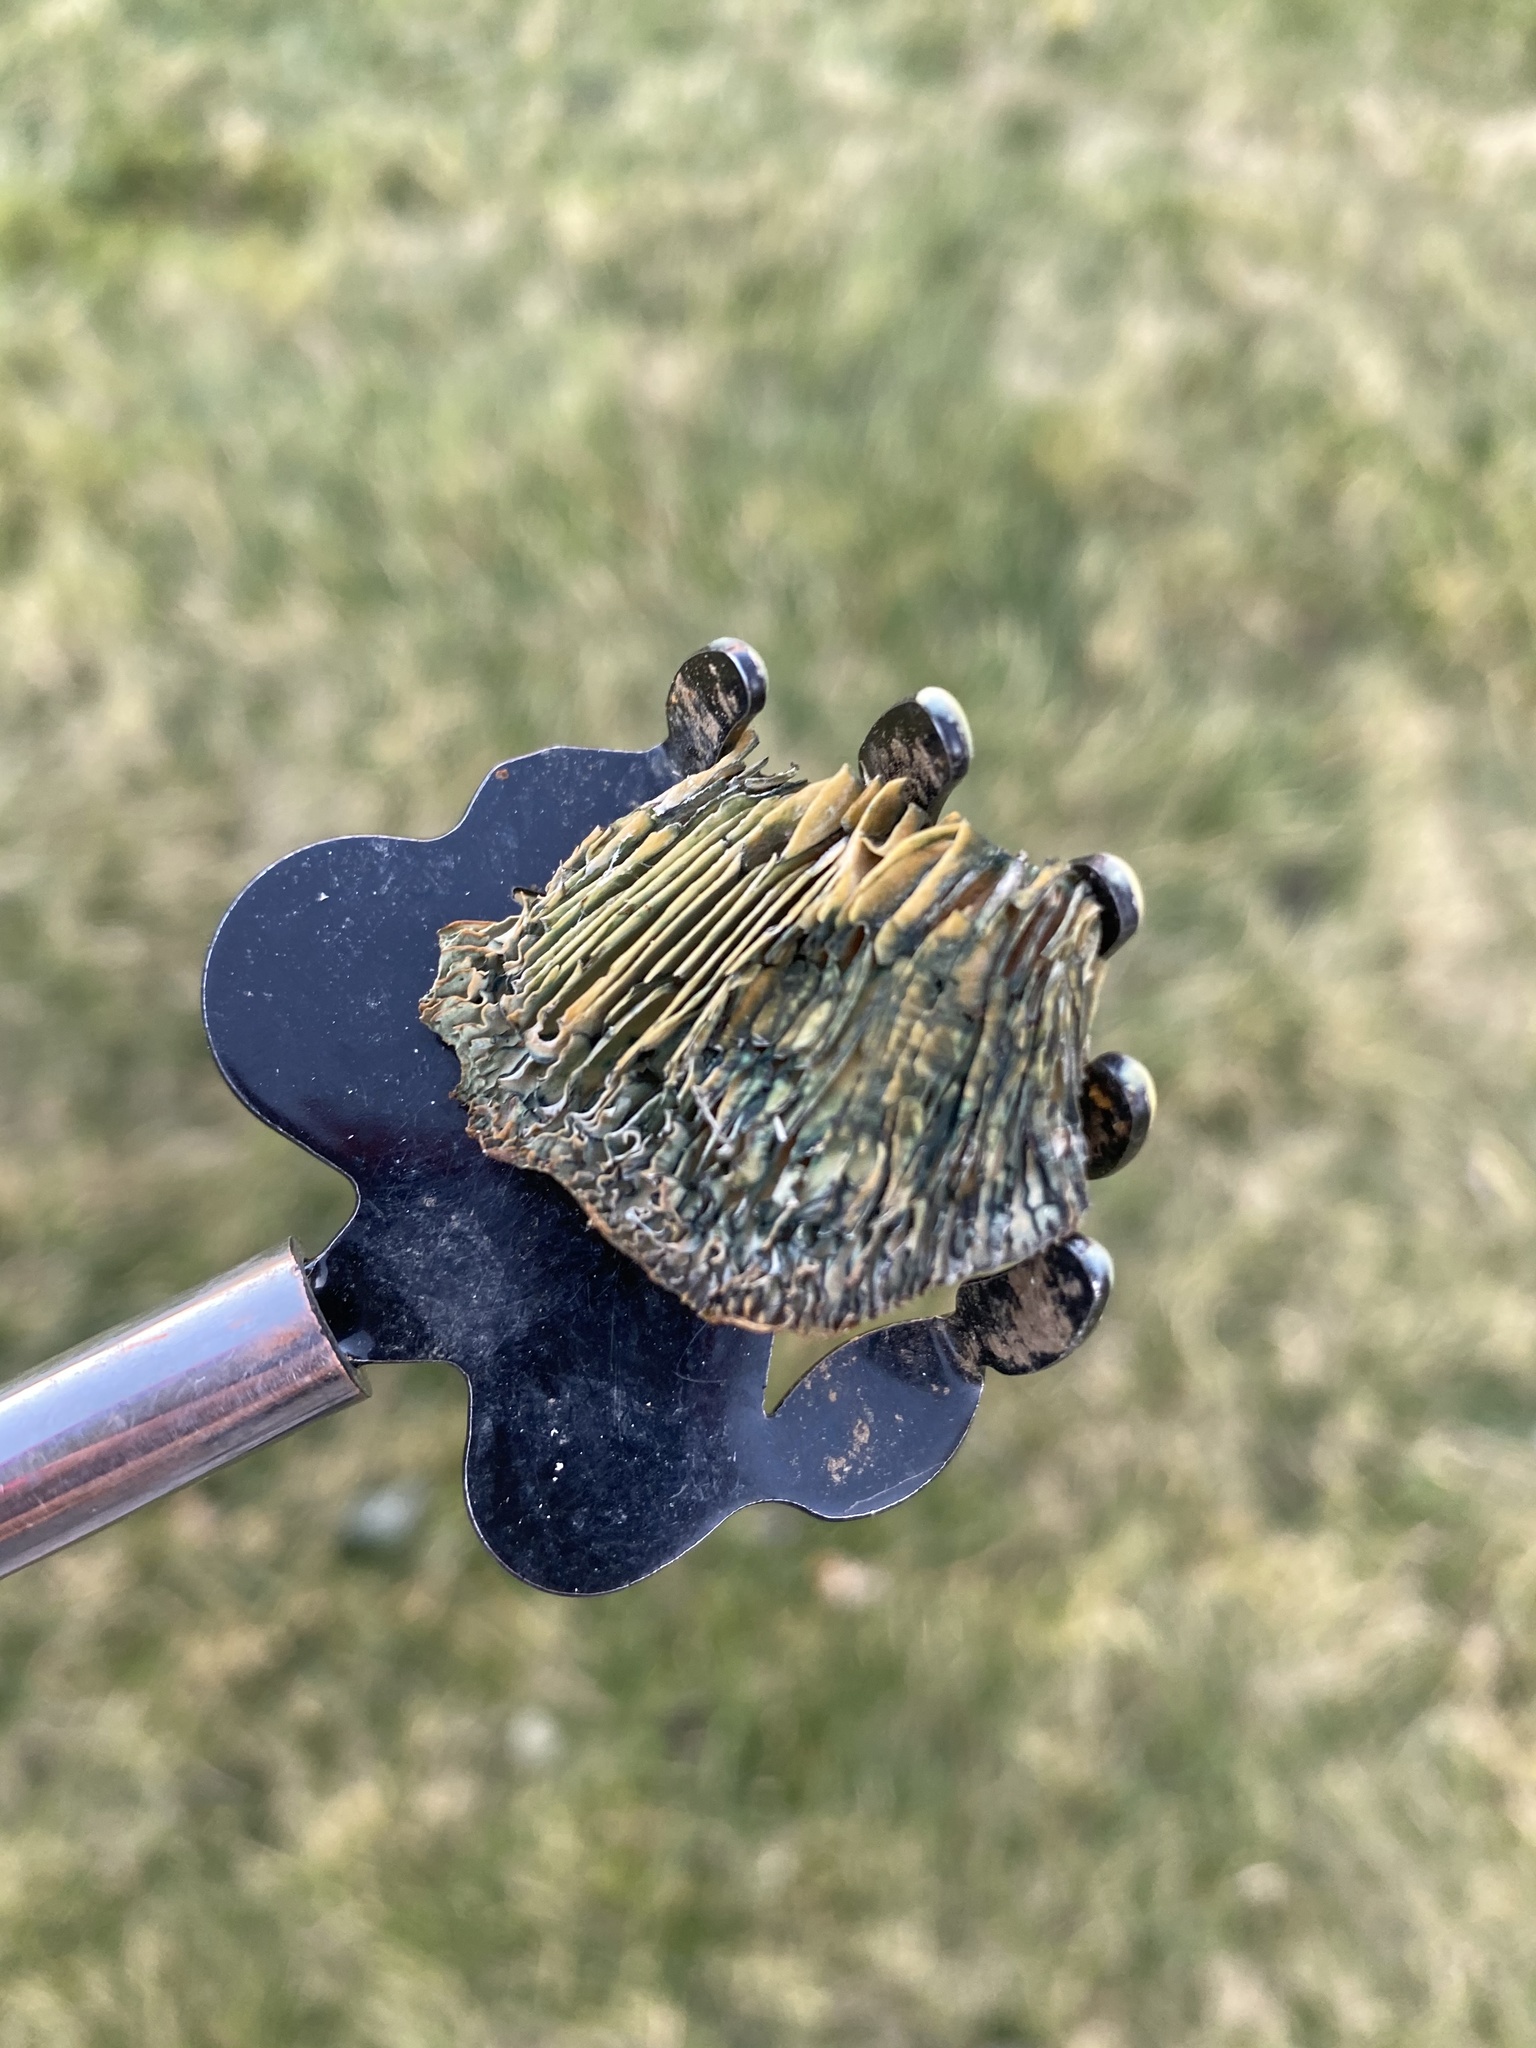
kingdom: Fungi
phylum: Basidiomycota
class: Agaricomycetes
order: Russulales
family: Russulaceae
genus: Lactarius
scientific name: Lactarius deliciosus
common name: Saffron milk-cap
